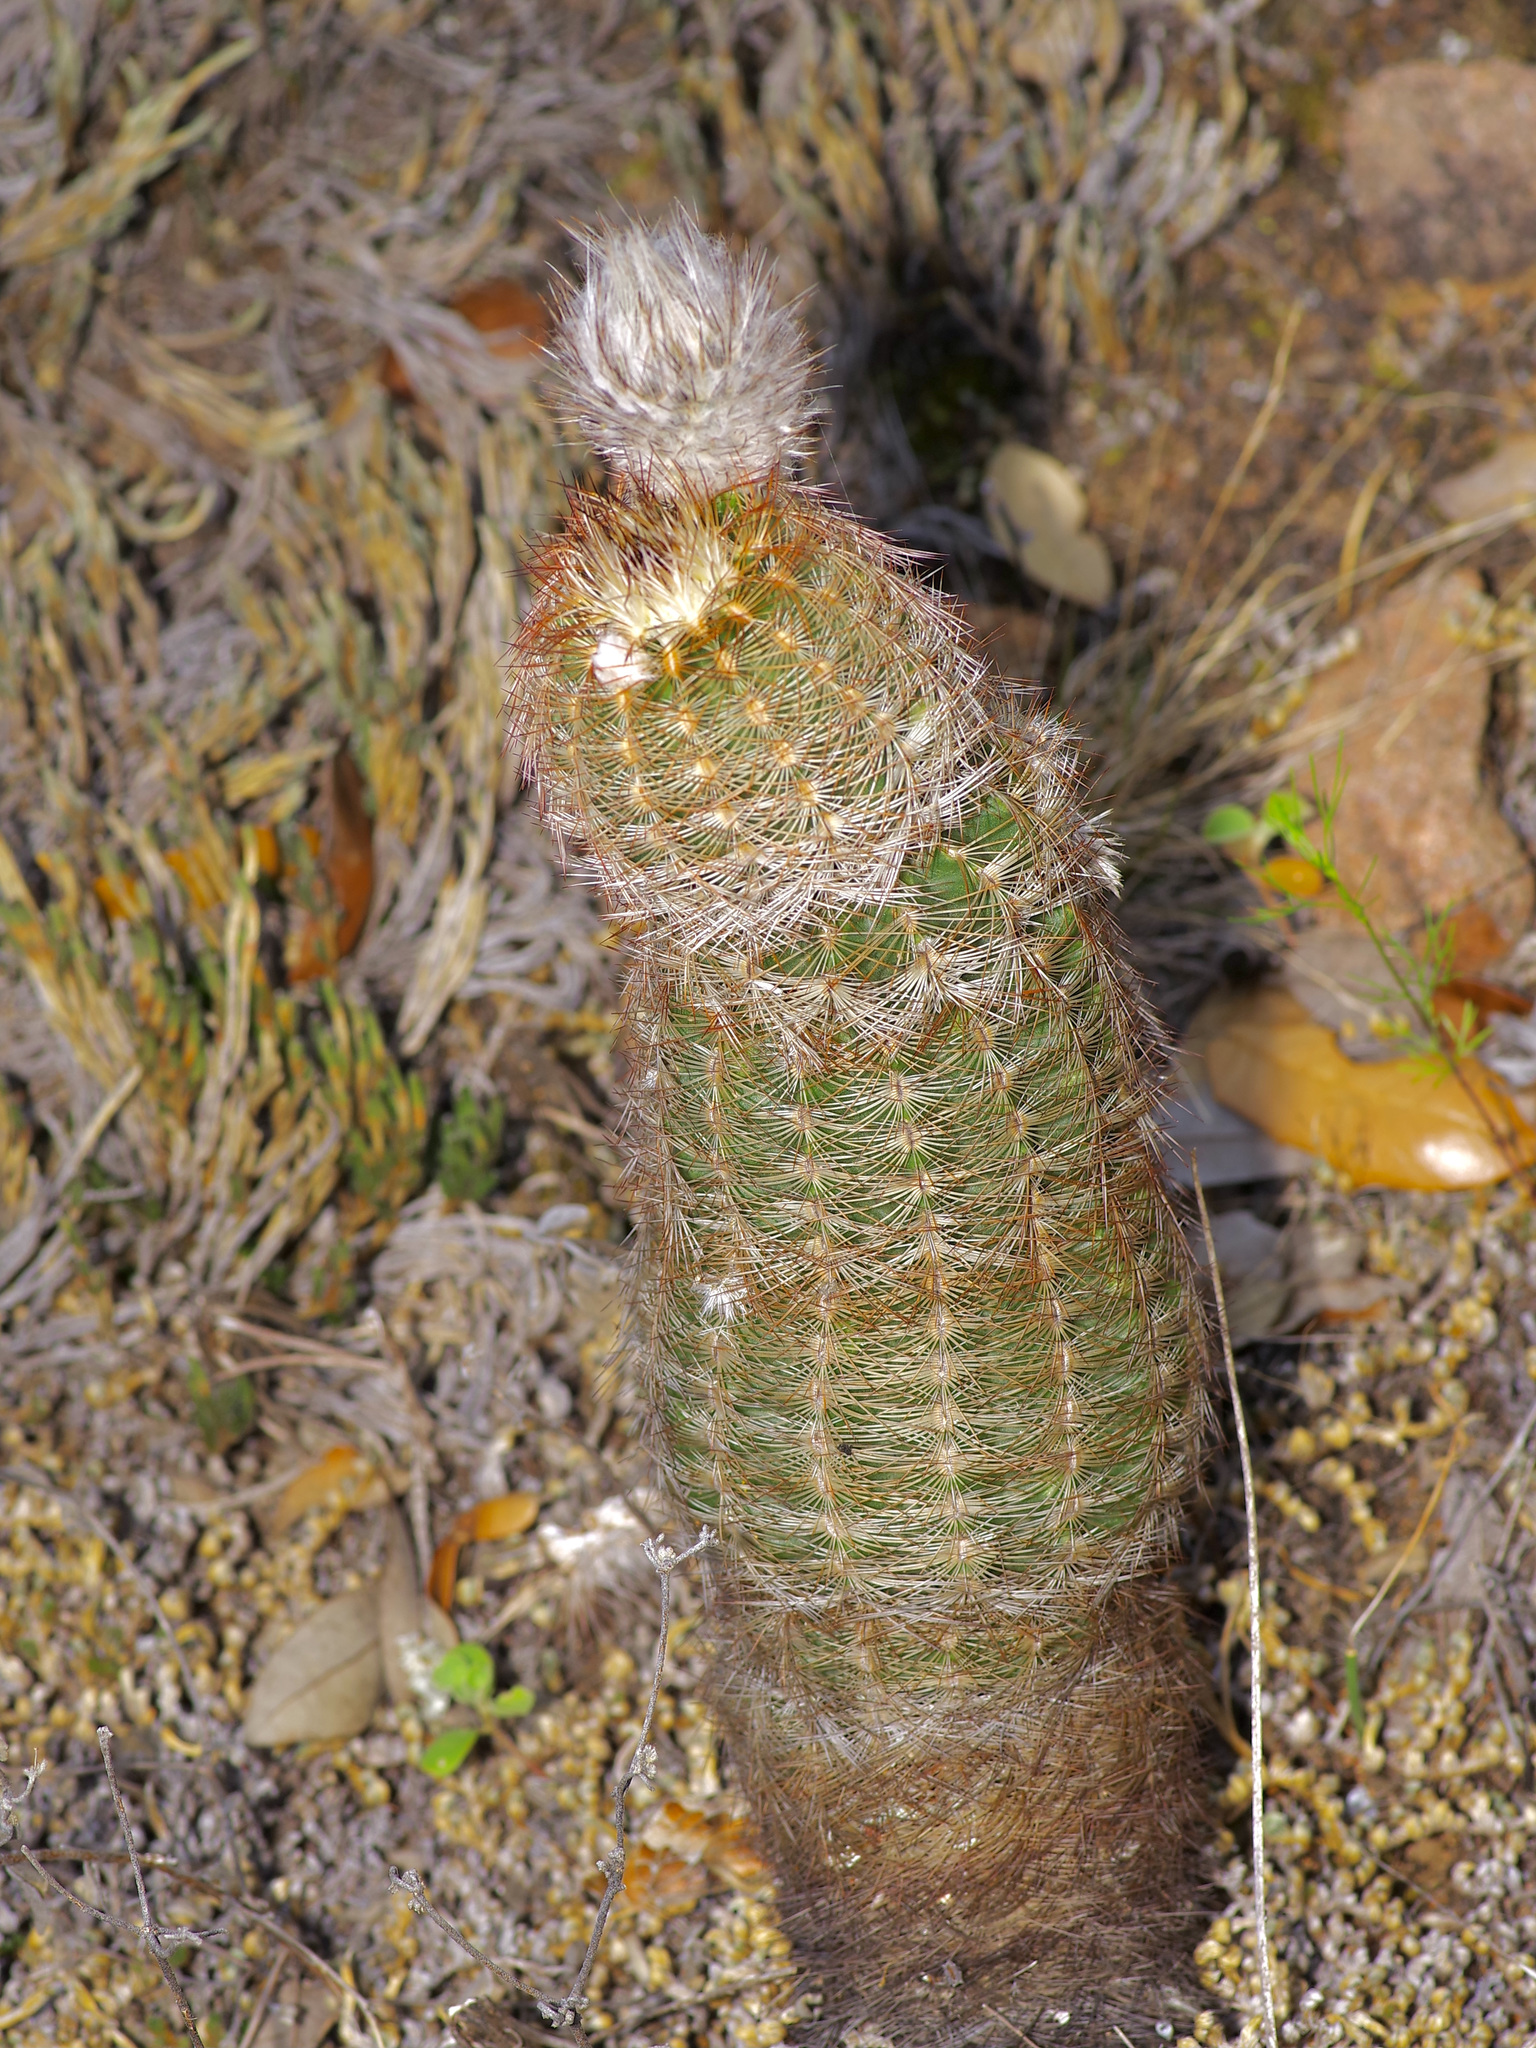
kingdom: Plantae
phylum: Tracheophyta
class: Magnoliopsida
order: Caryophyllales
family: Cactaceae
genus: Echinocereus
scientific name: Echinocereus reichenbachii
